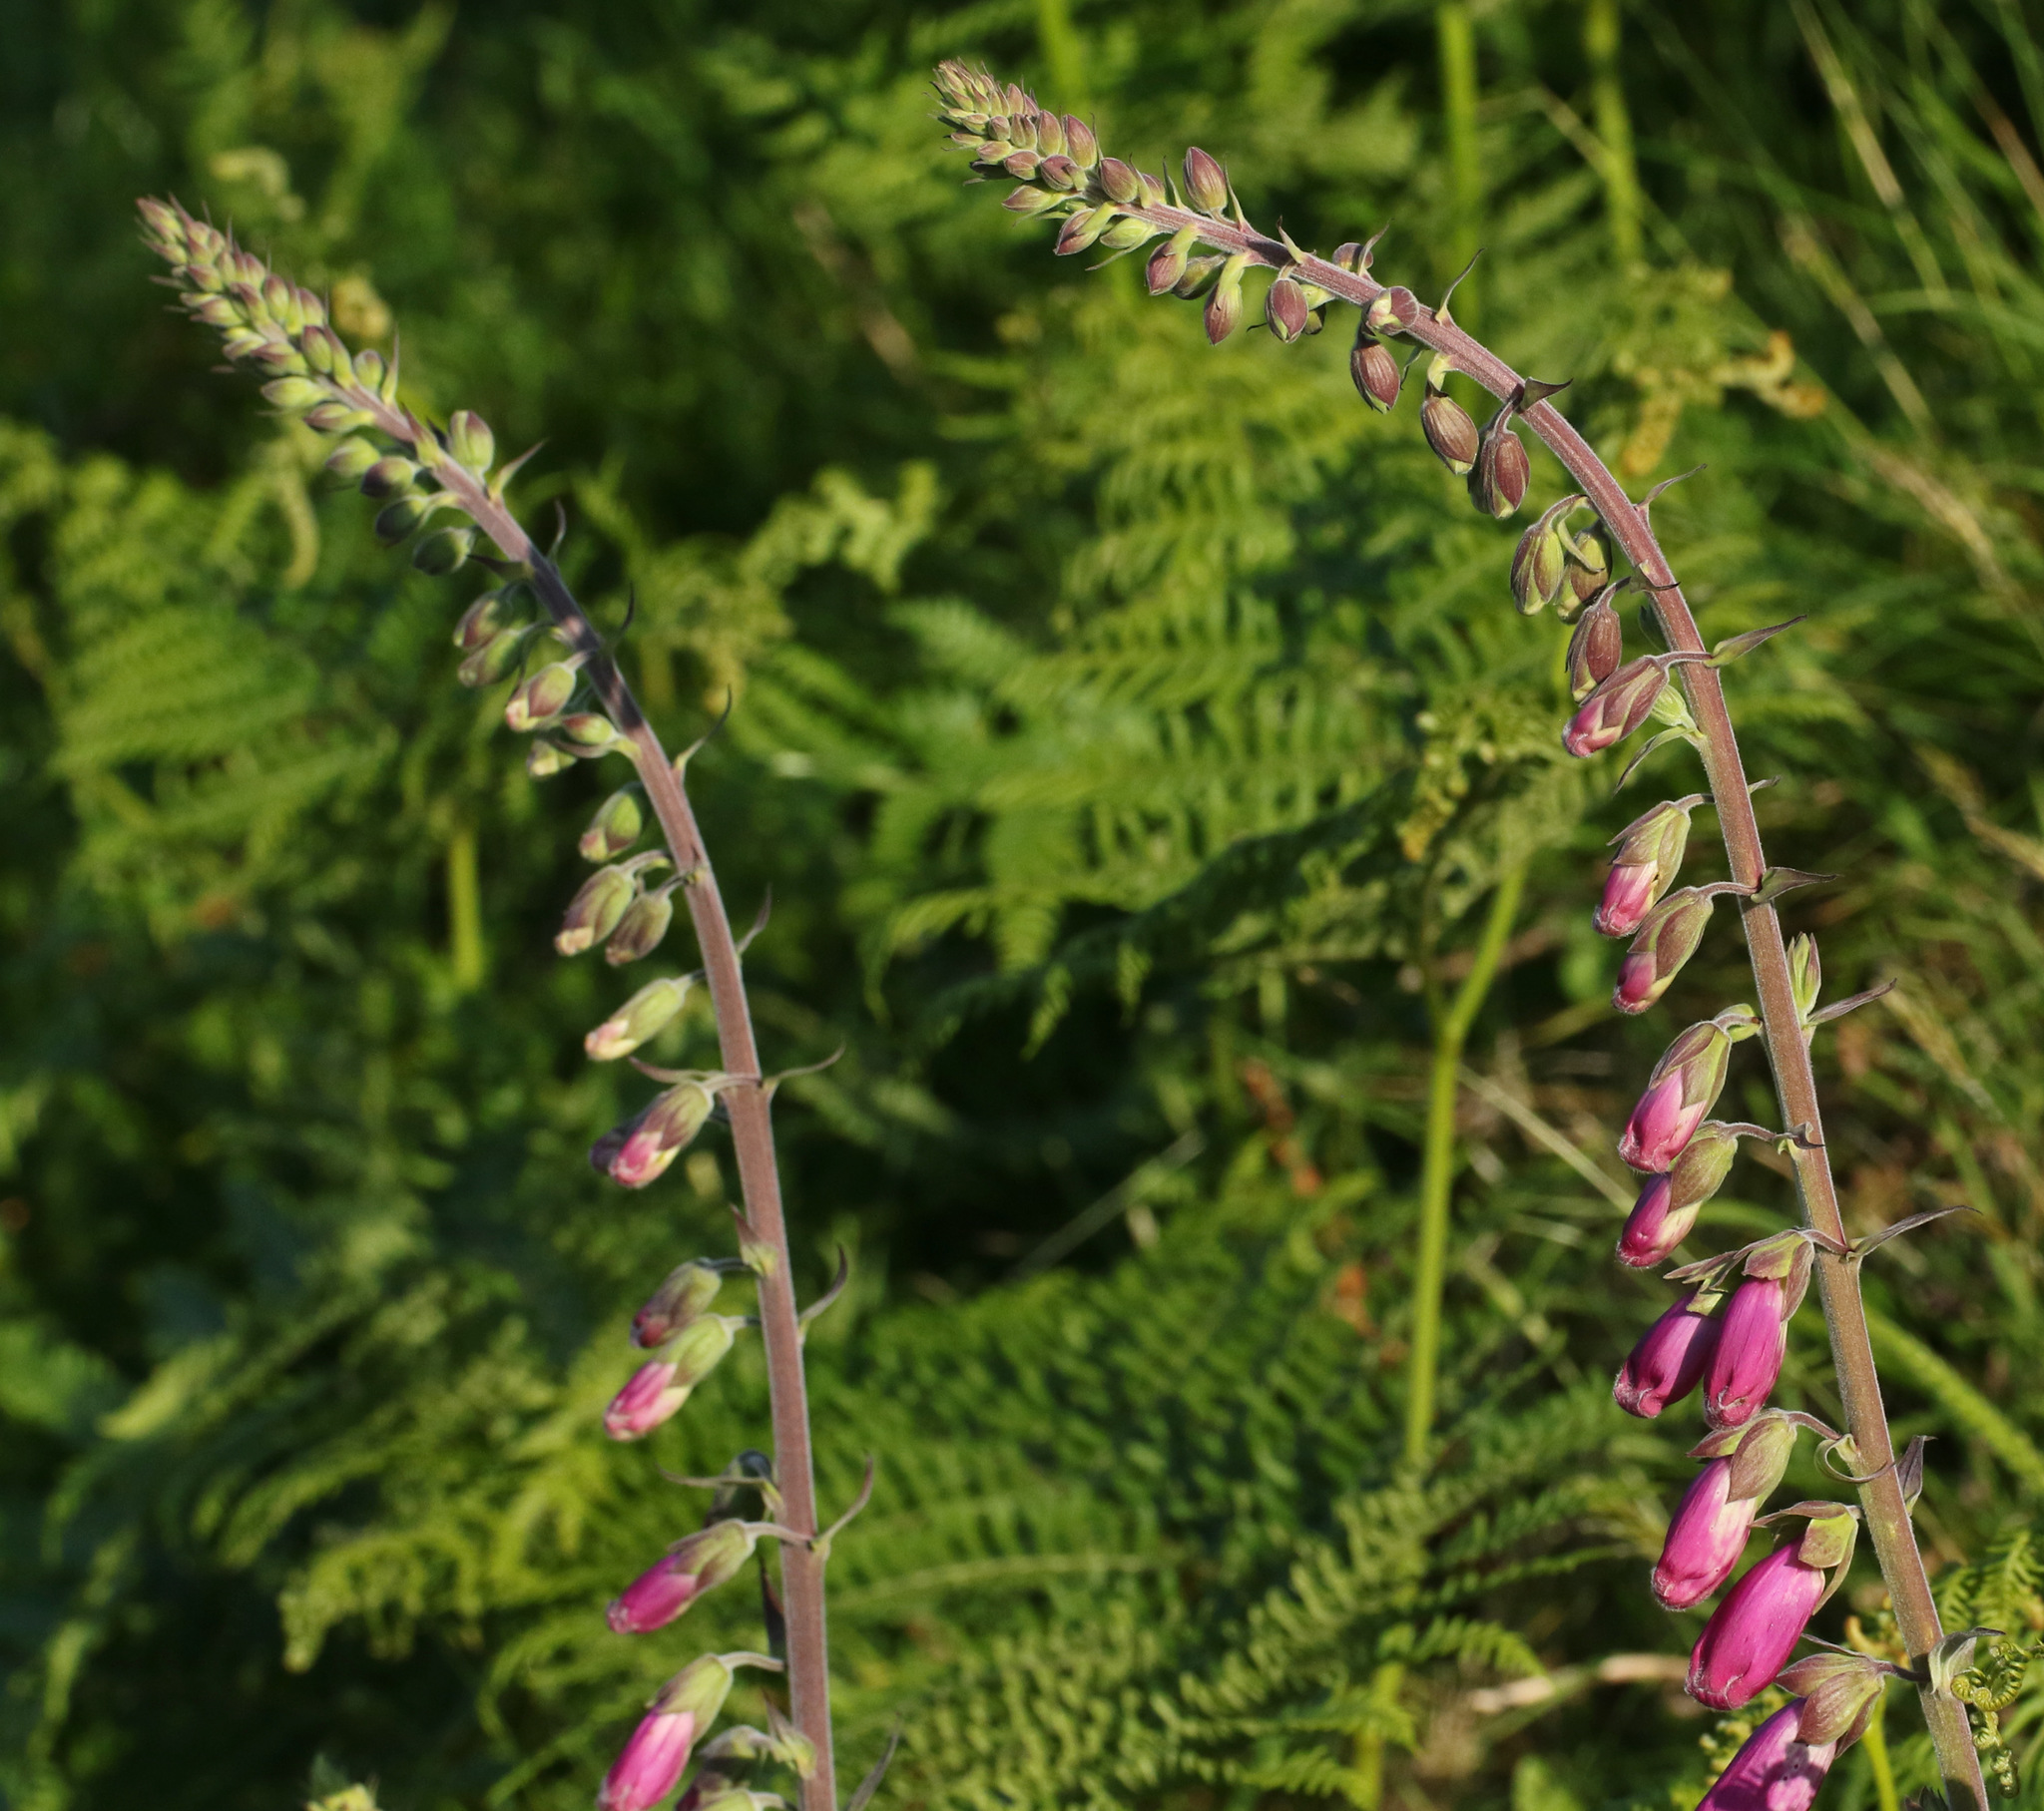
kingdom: Plantae
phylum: Tracheophyta
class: Magnoliopsida
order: Lamiales
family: Plantaginaceae
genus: Digitalis
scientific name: Digitalis purpurea
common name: Foxglove
